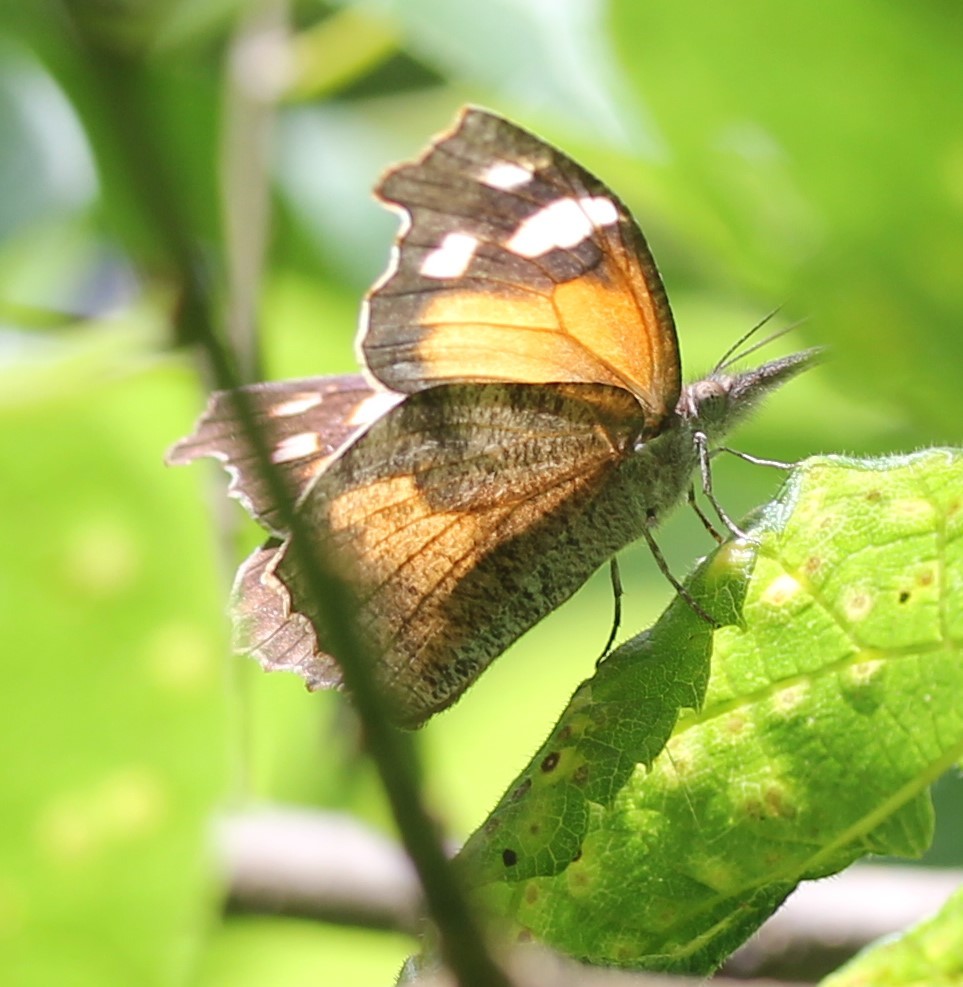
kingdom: Animalia
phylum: Arthropoda
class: Insecta
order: Lepidoptera
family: Nymphalidae
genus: Libytheana
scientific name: Libytheana carinenta
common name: American snout
